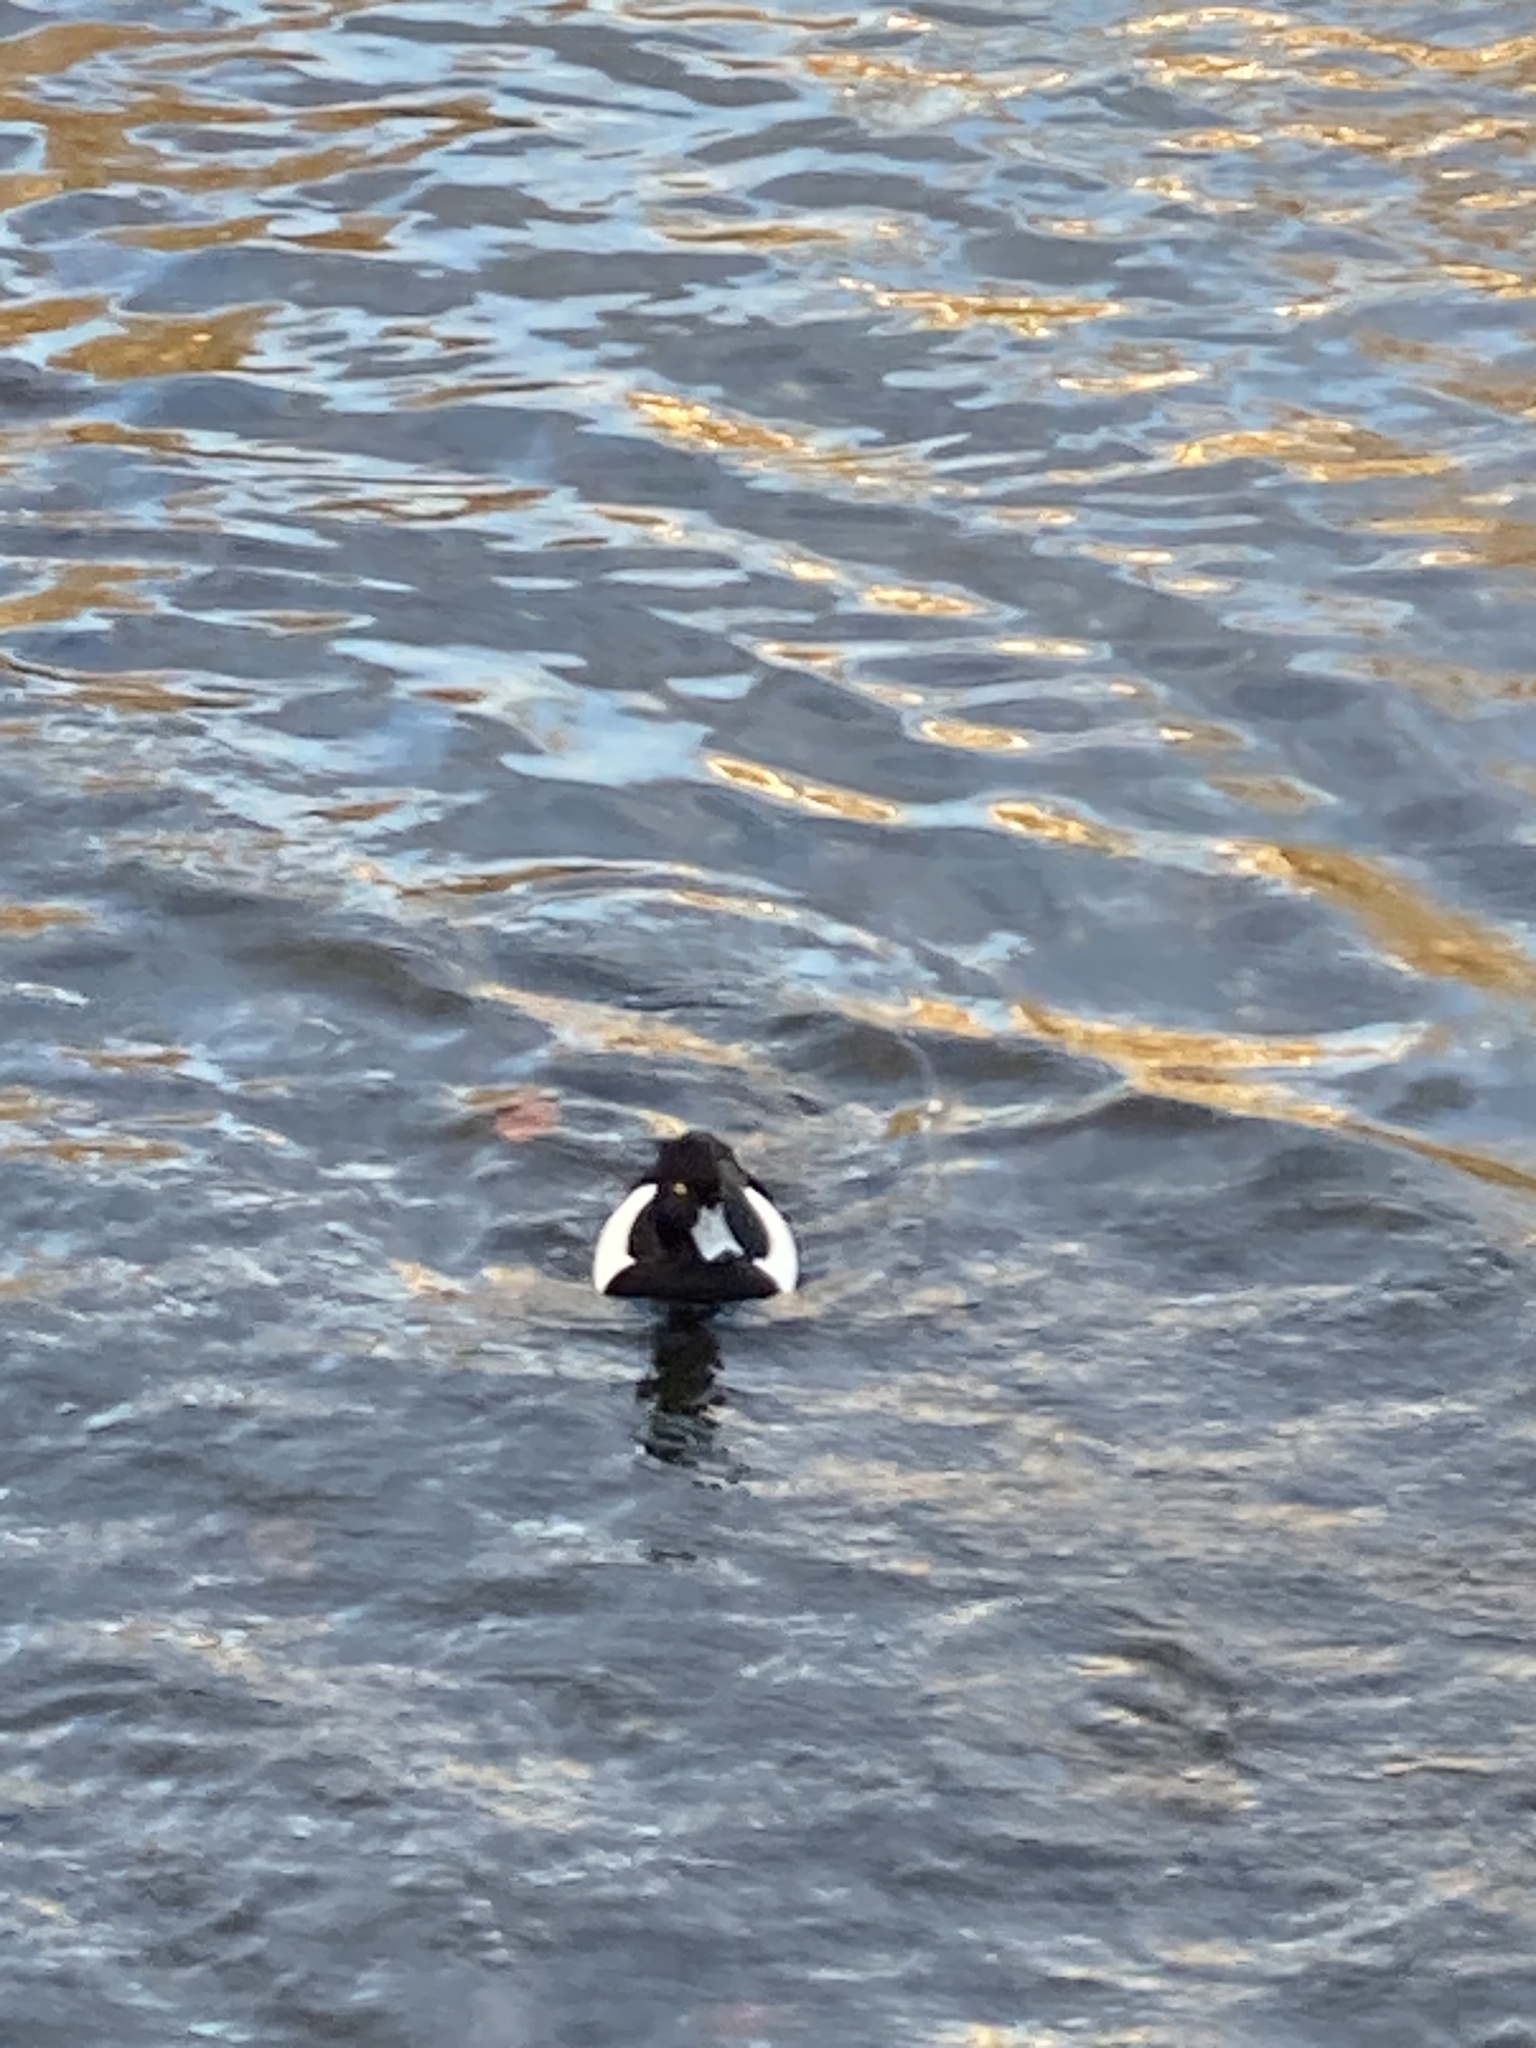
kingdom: Animalia
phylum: Chordata
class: Aves
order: Anseriformes
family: Anatidae
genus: Aythya
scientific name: Aythya fuligula
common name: Tufted duck
